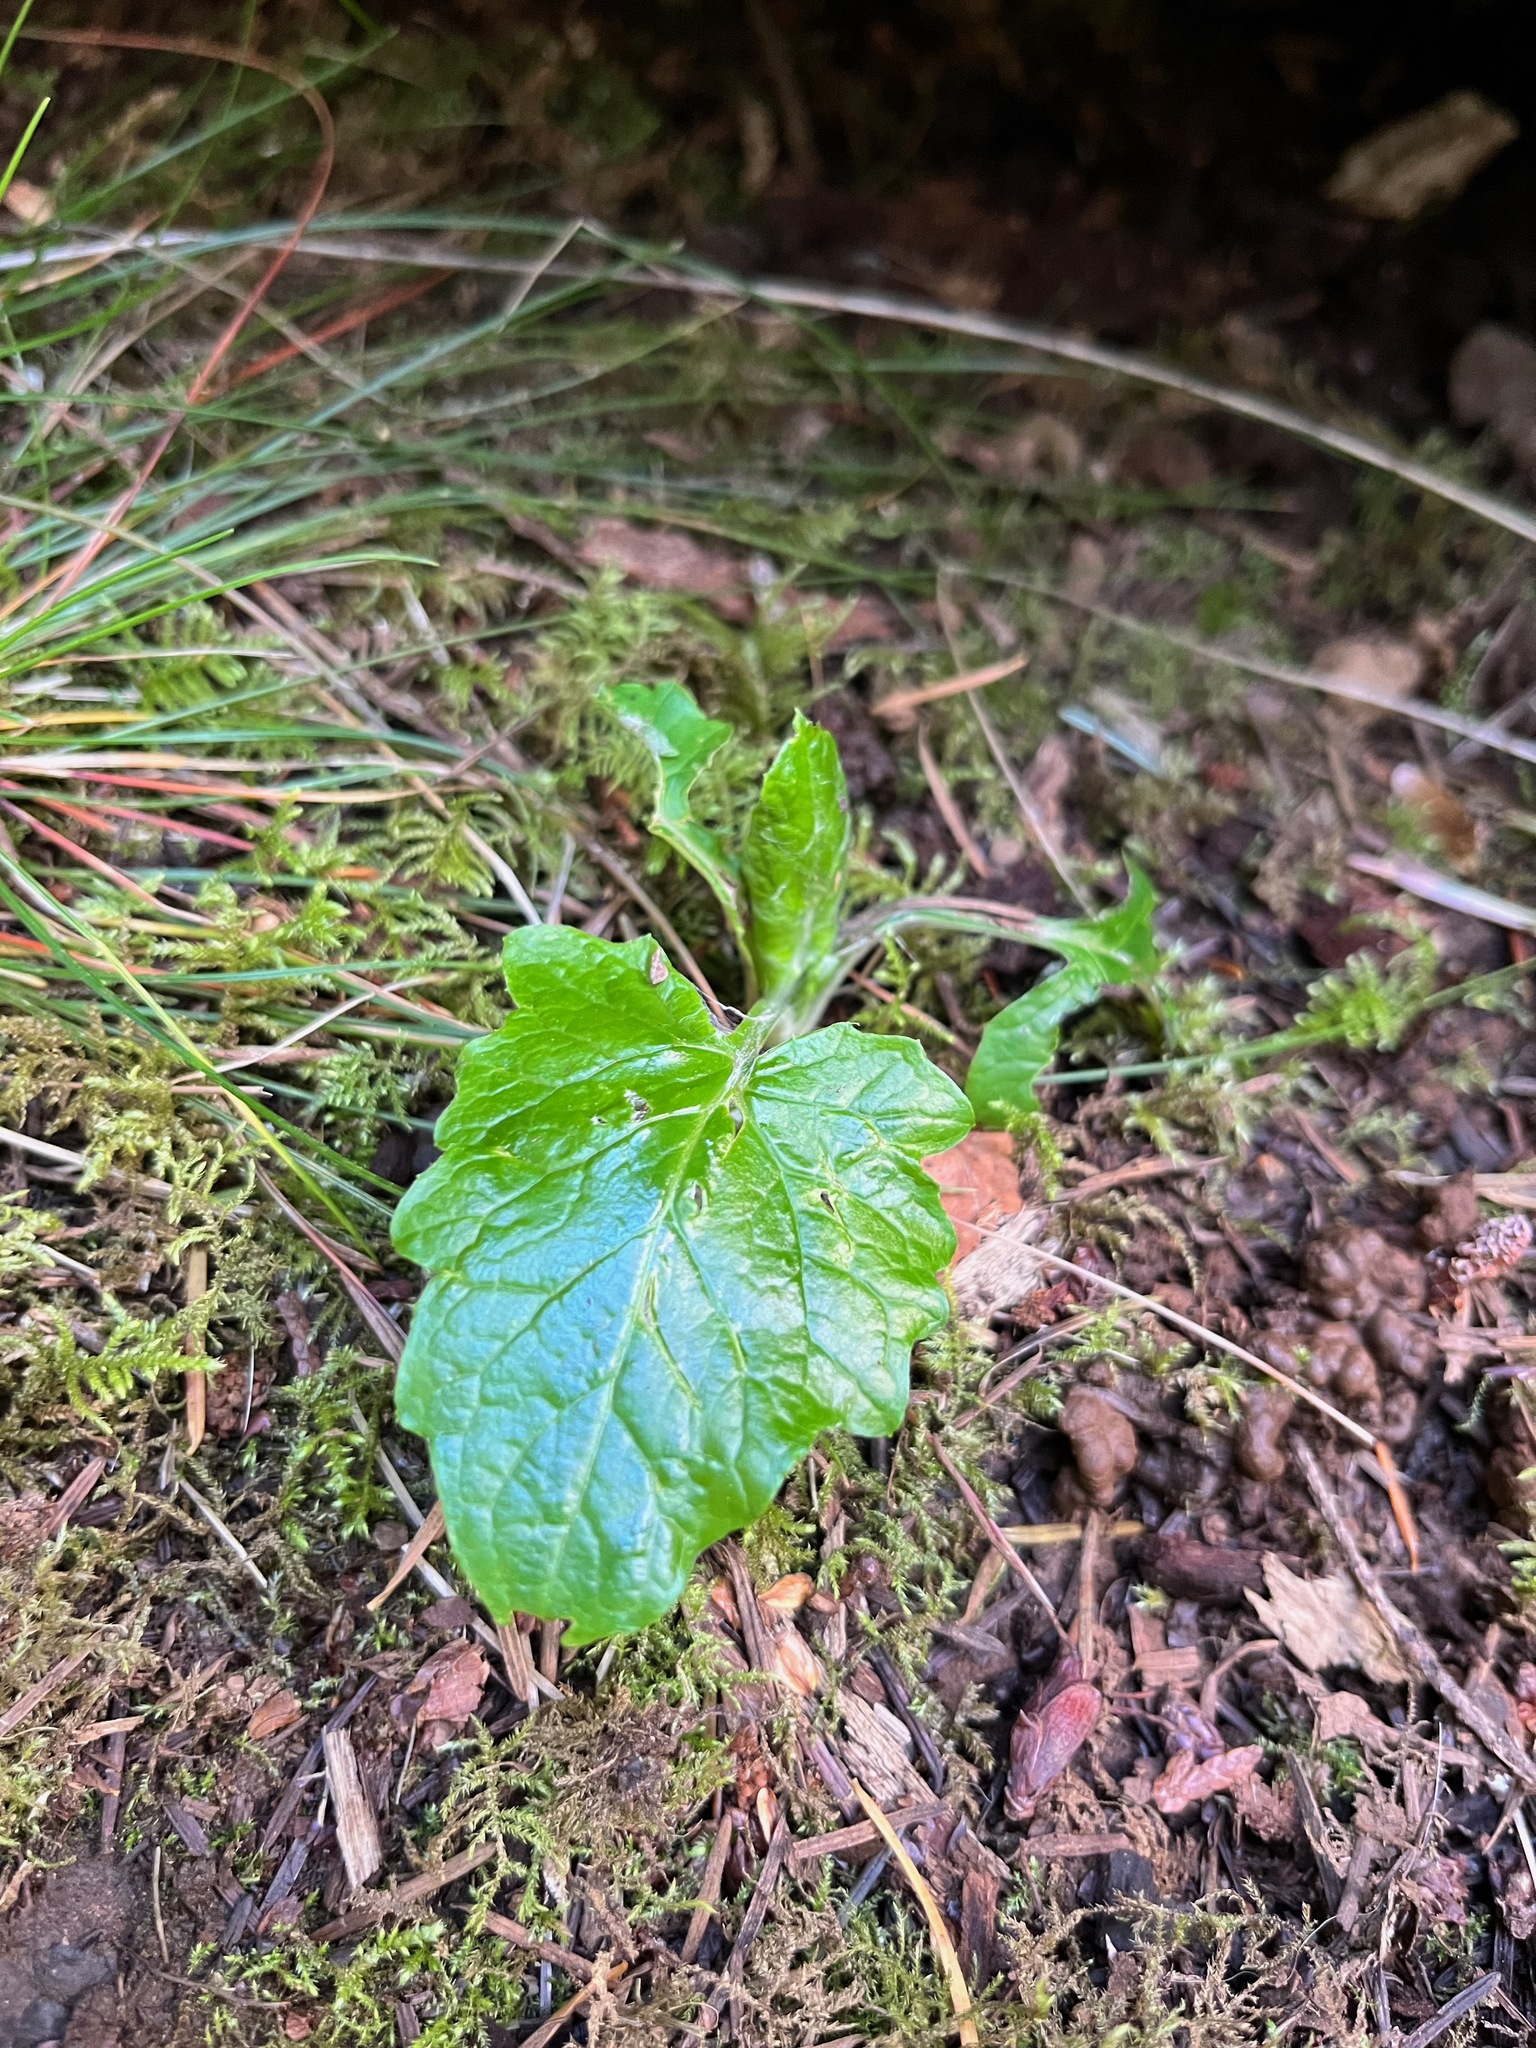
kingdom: Plantae
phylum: Tracheophyta
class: Magnoliopsida
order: Asterales
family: Asteraceae
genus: Adenocaulon
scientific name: Adenocaulon bicolor
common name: Trailplant
